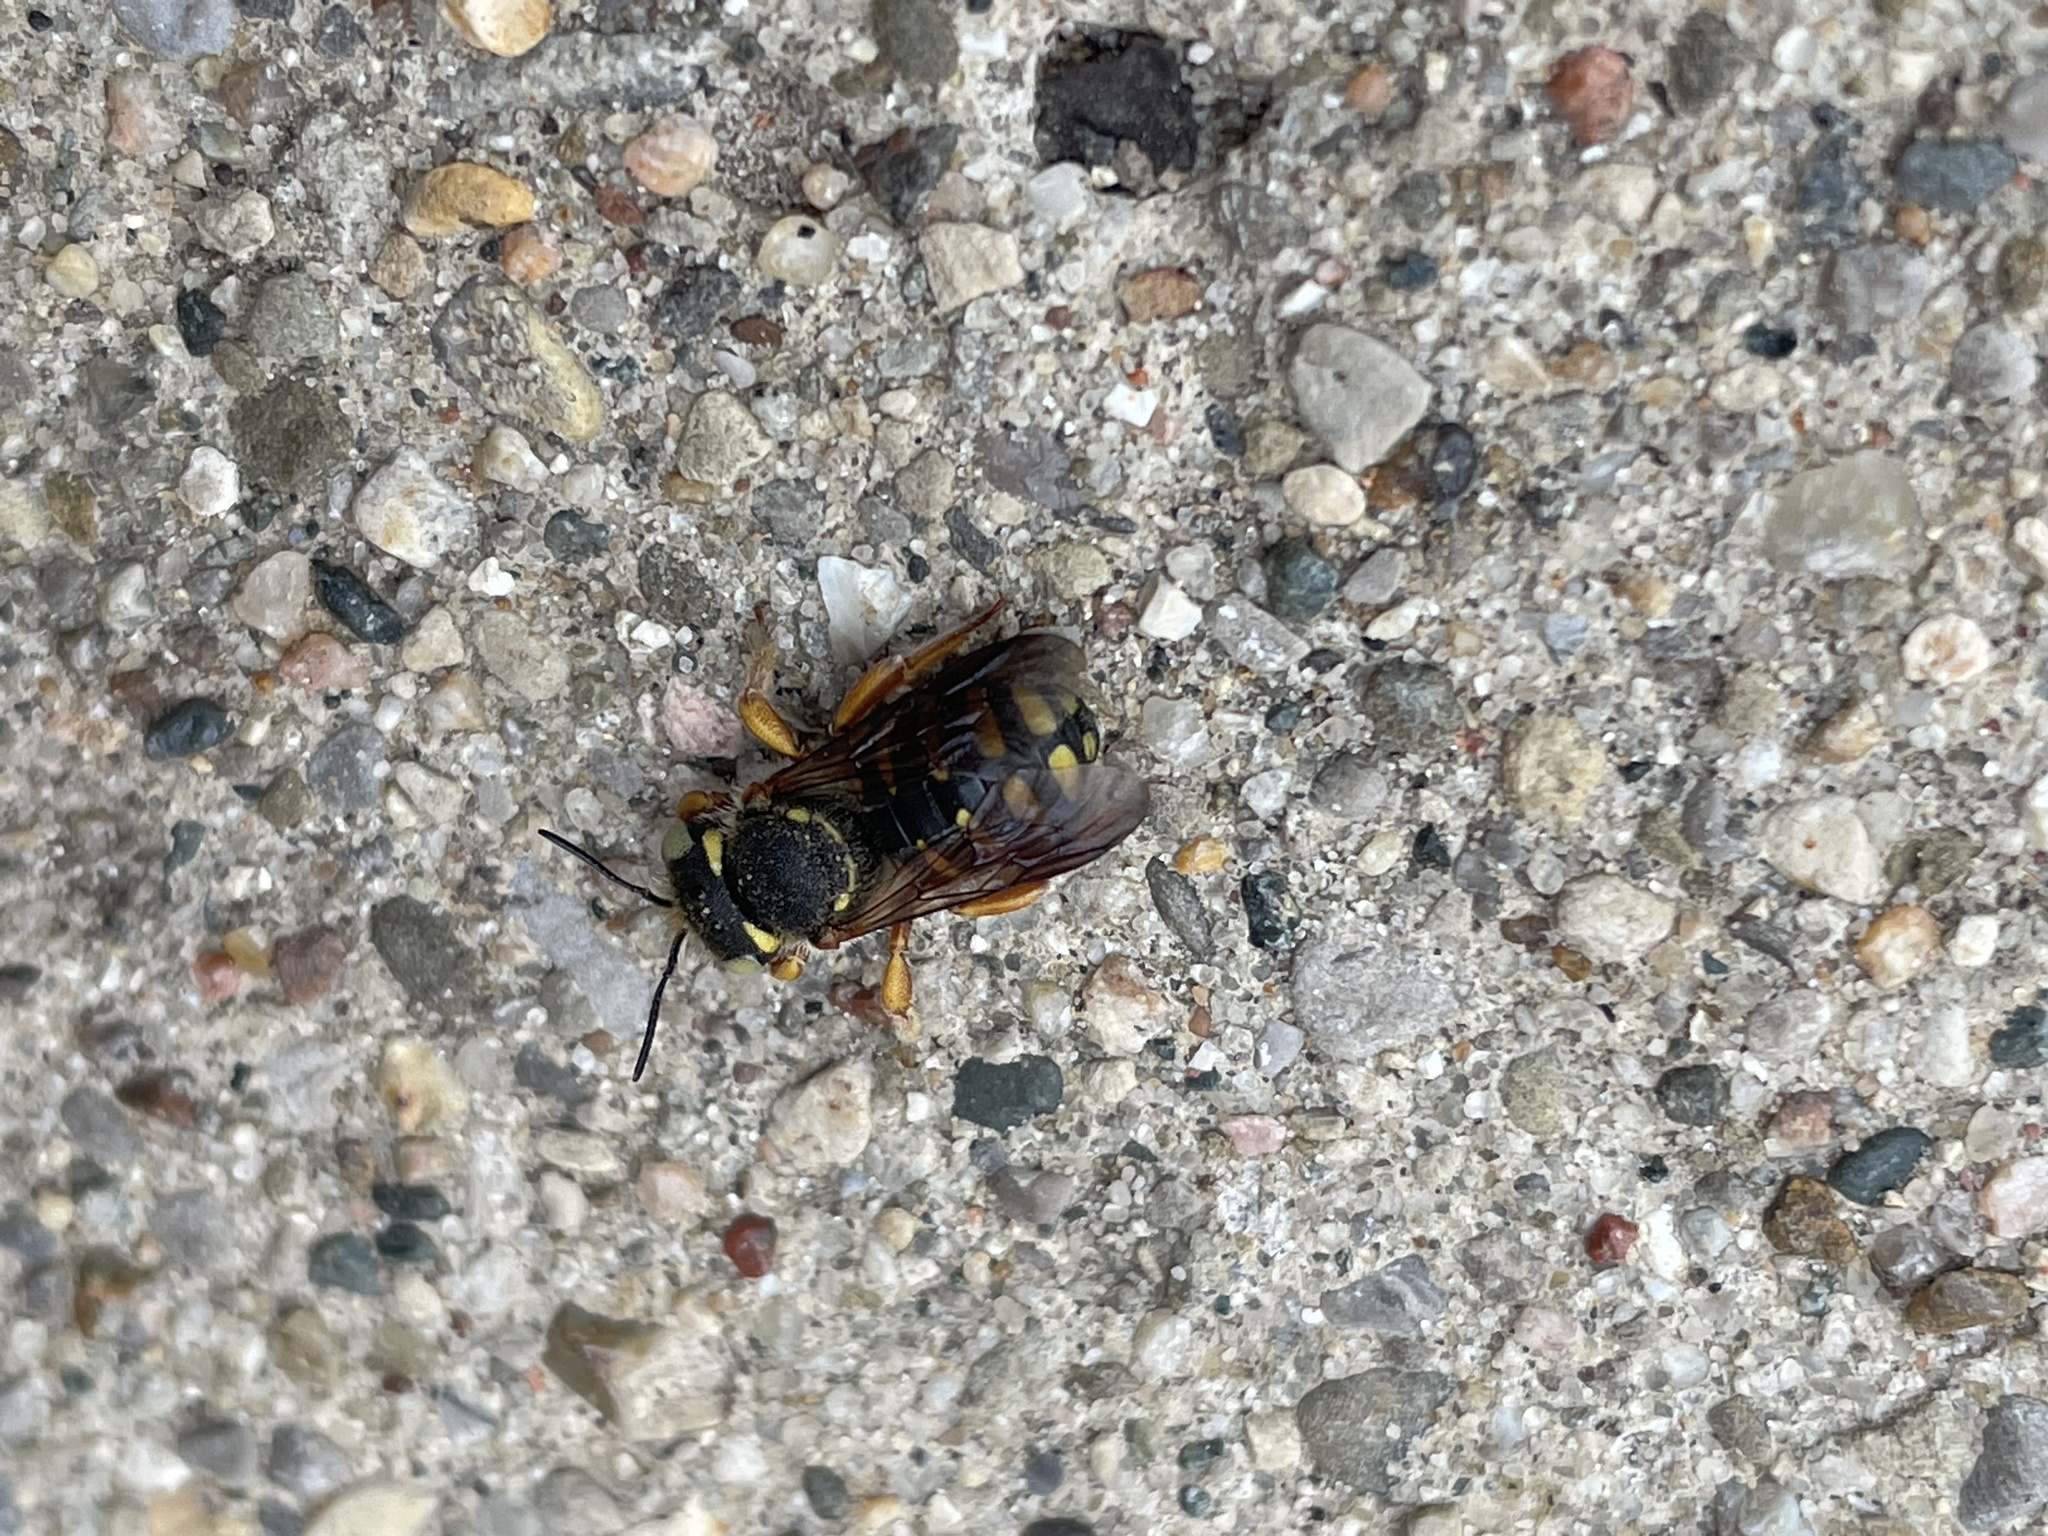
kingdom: Animalia
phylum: Arthropoda
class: Insecta
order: Hymenoptera
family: Megachilidae
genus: Anthidium
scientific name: Anthidium oblongatum
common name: Oblong wool carder bee
